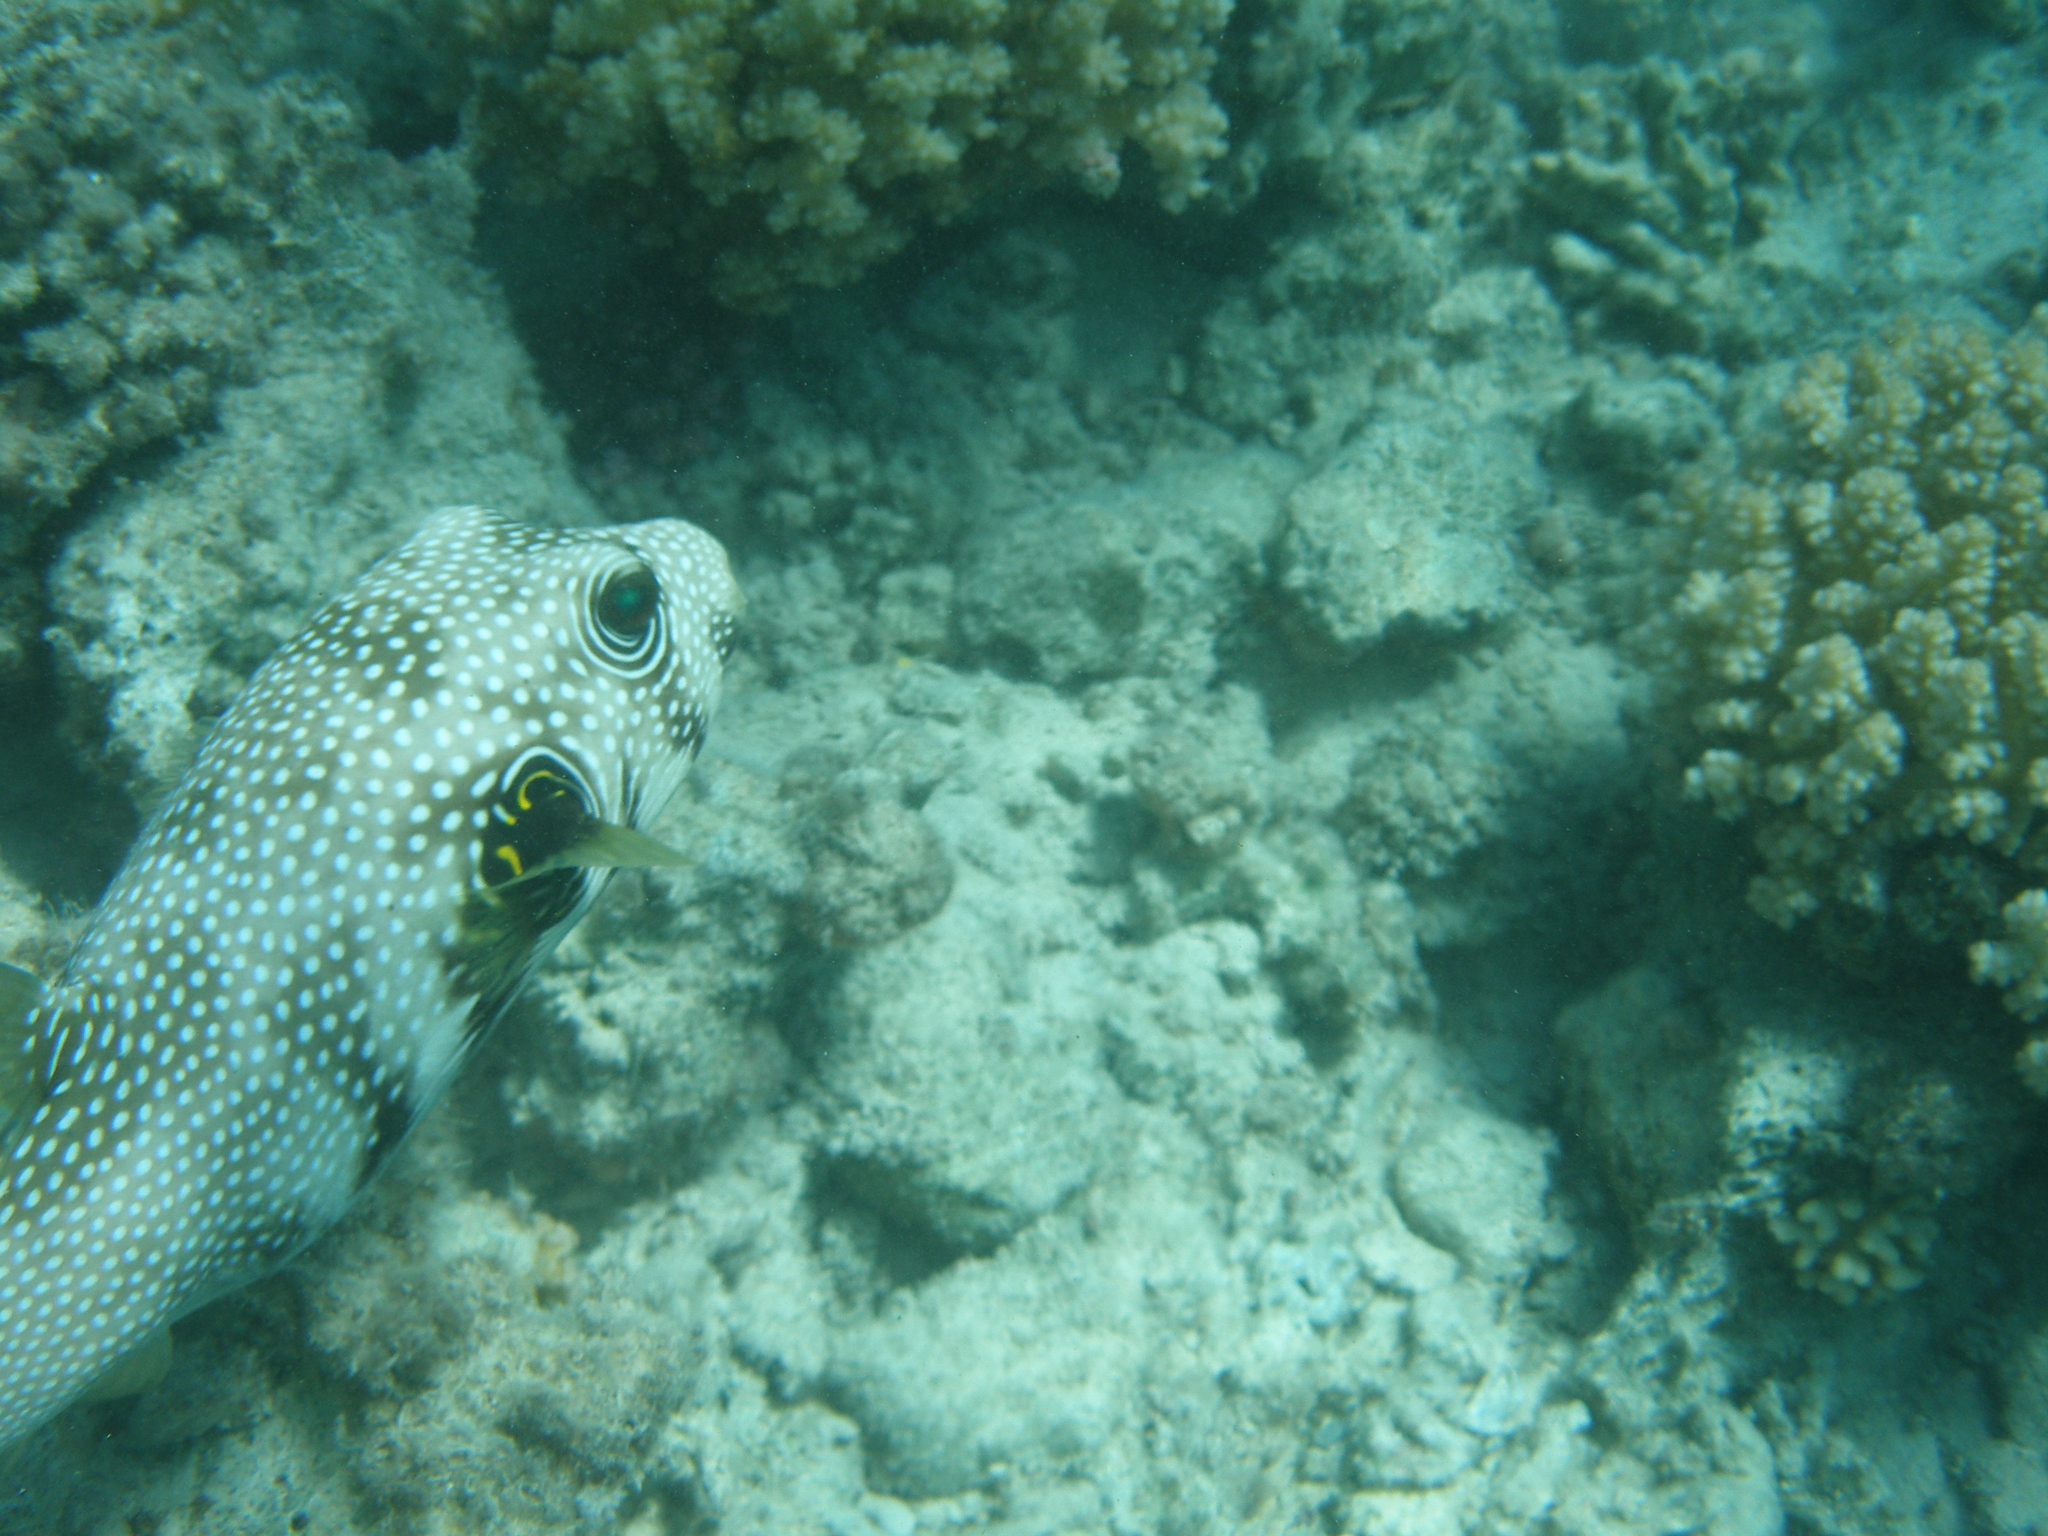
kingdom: Animalia
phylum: Chordata
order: Tetraodontiformes
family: Tetraodontidae
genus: Arothron
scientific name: Arothron hispidus
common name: Stripebelly puffer
